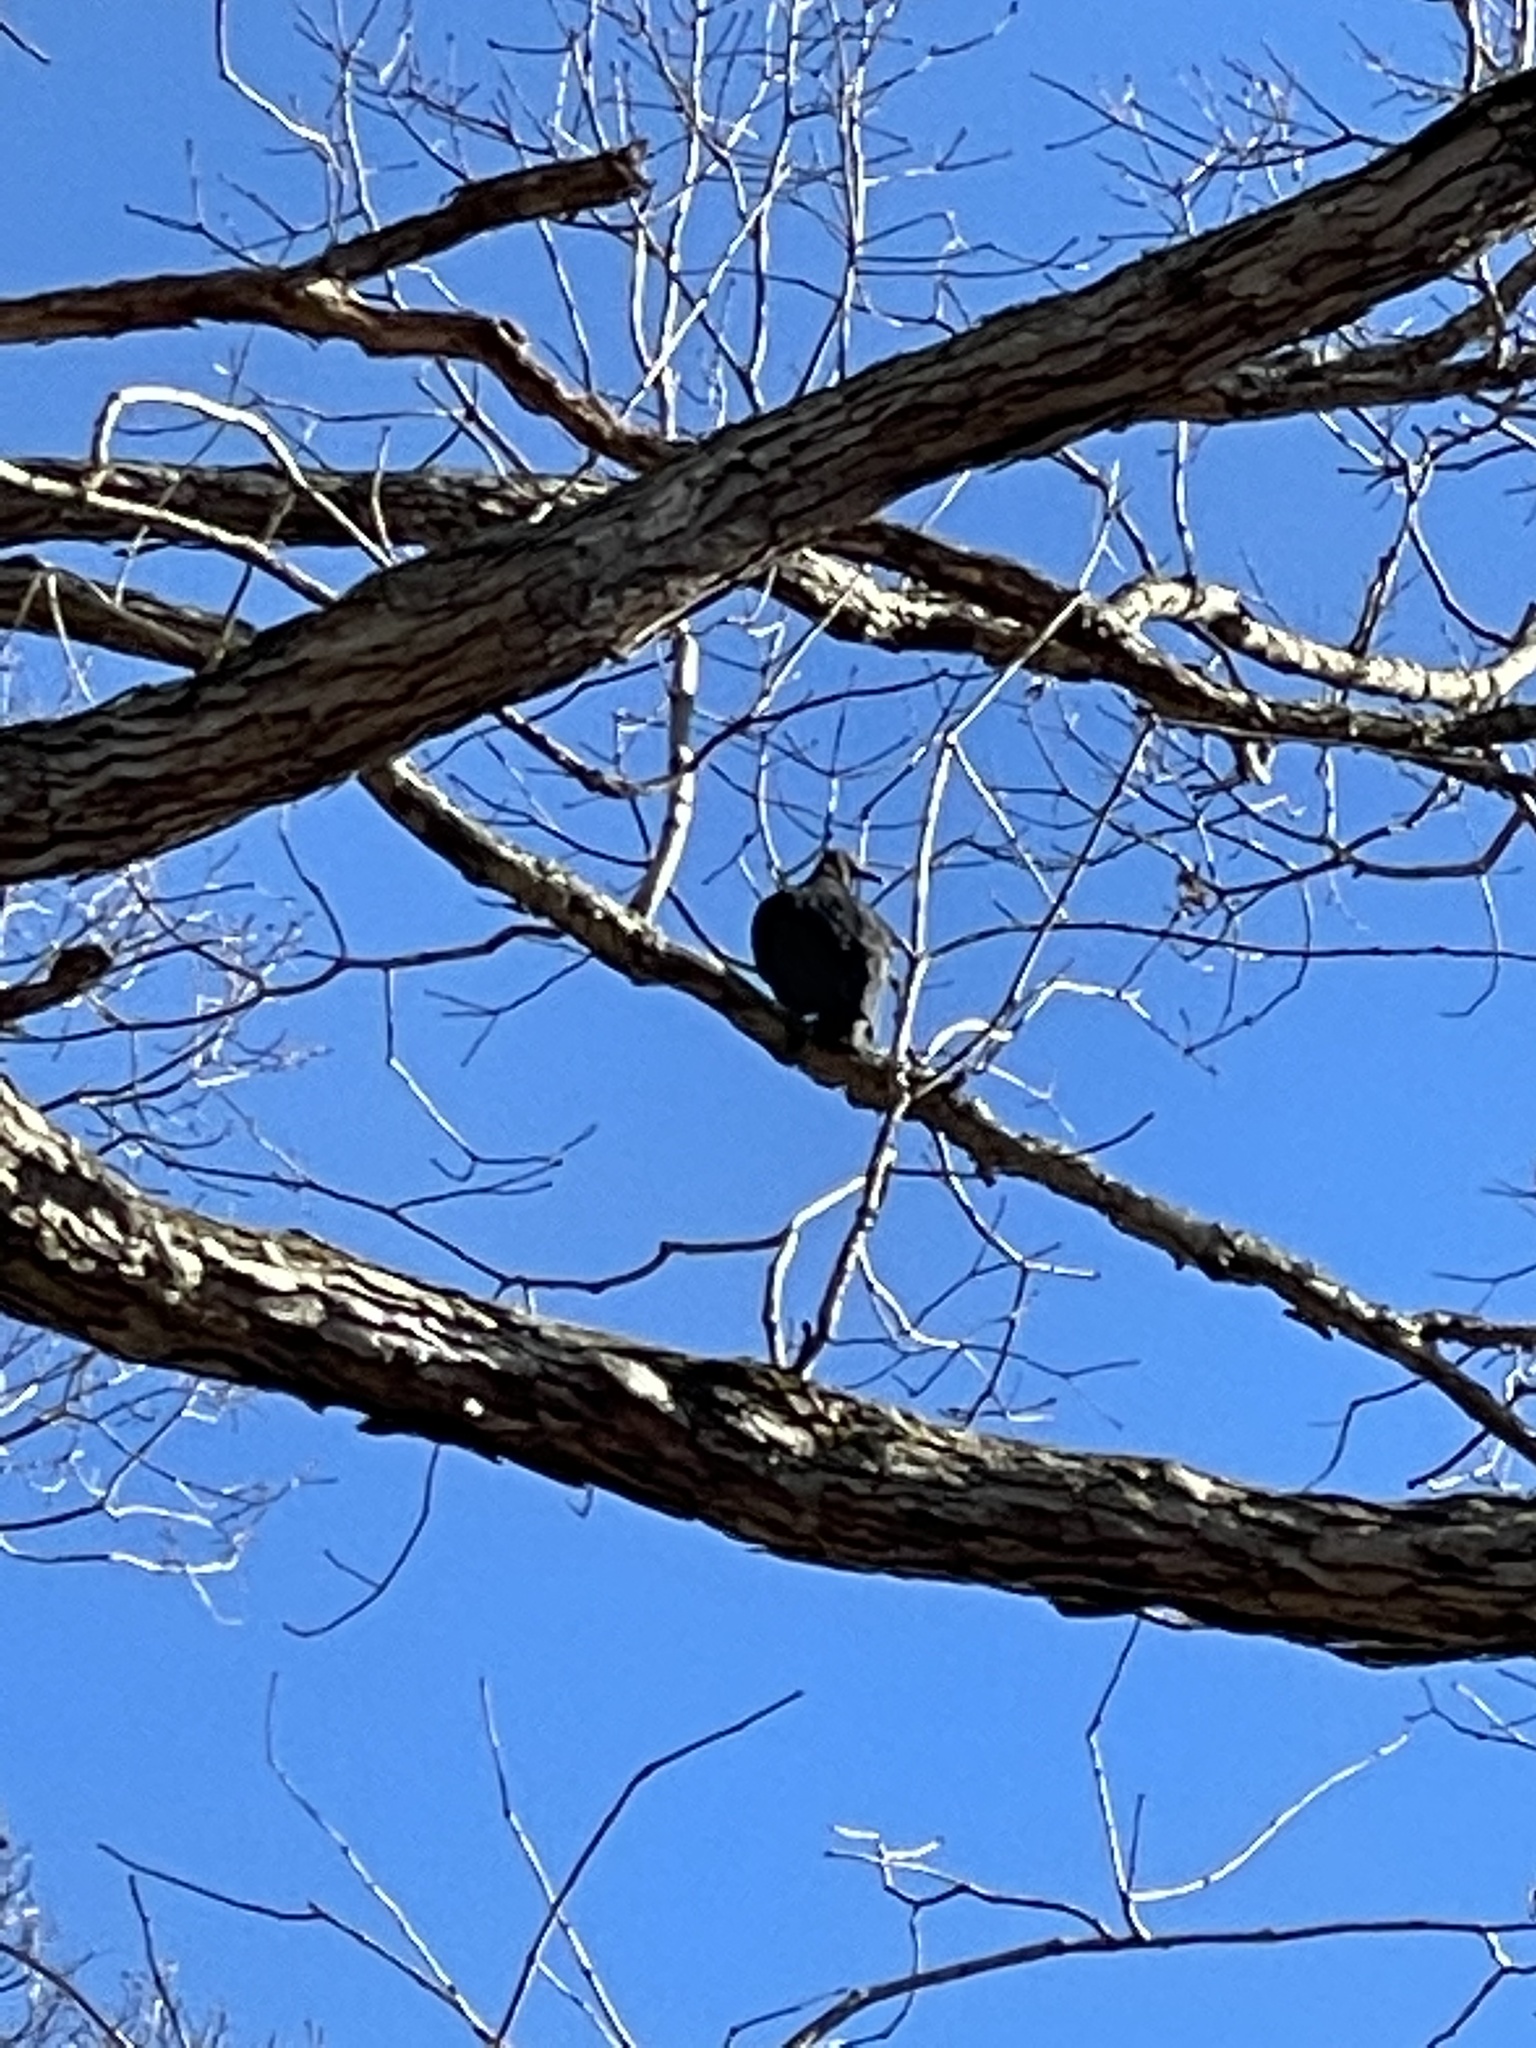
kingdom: Animalia
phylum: Chordata
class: Aves
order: Accipitriformes
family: Cathartidae
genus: Coragyps
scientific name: Coragyps atratus
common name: Black vulture
